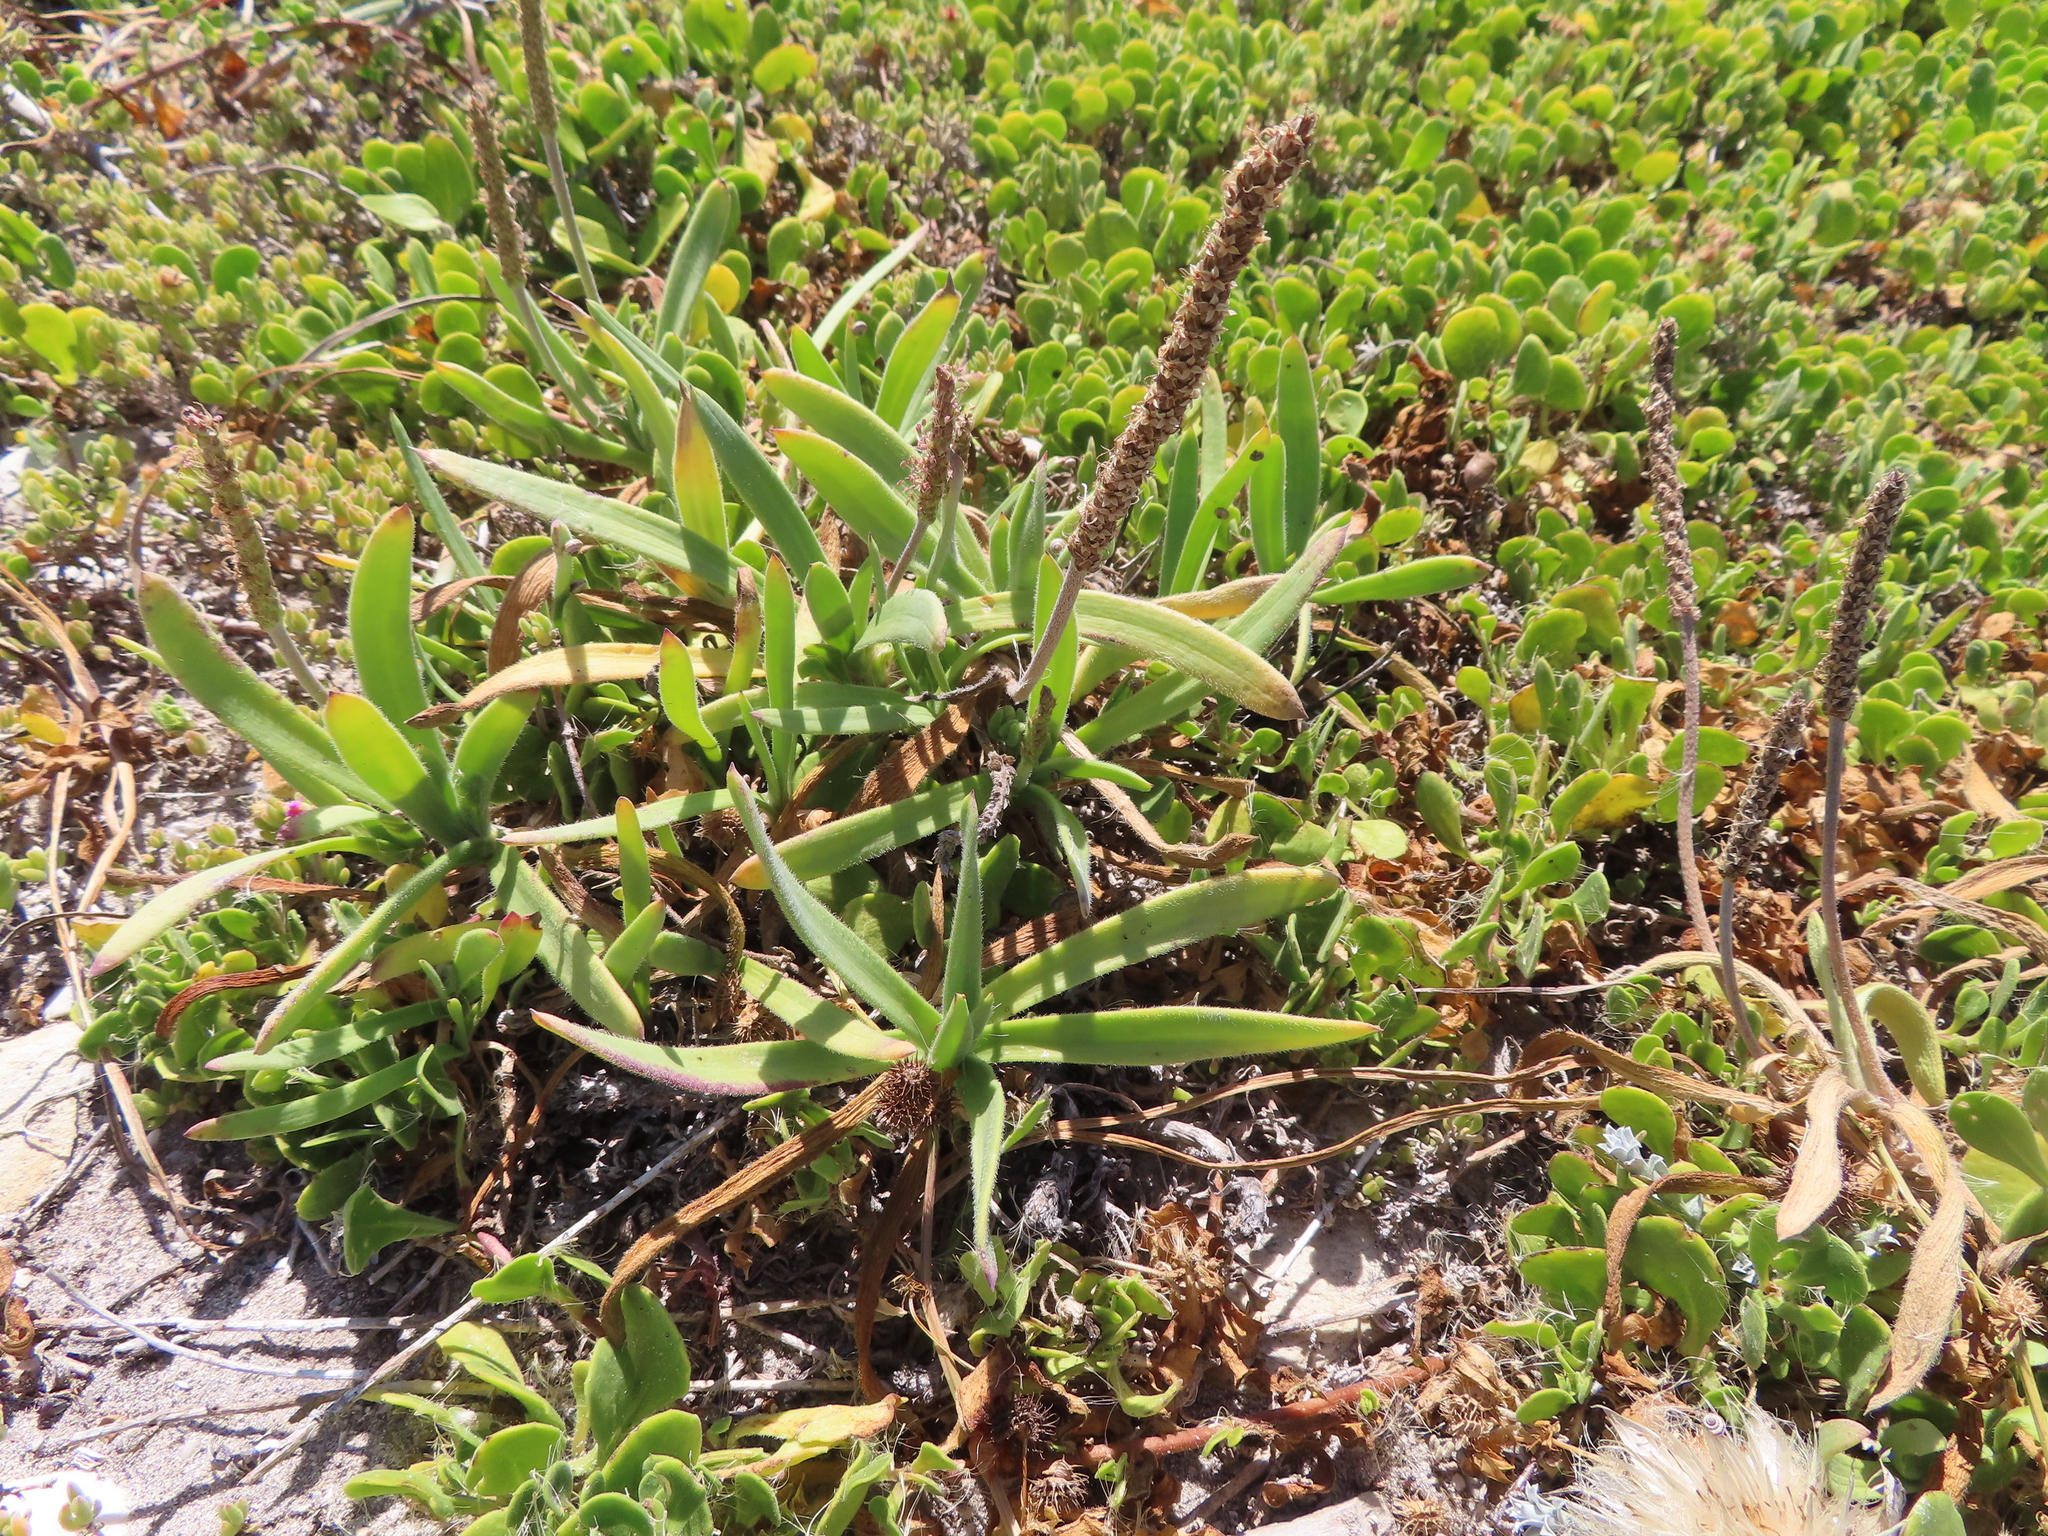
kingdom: Plantae
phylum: Tracheophyta
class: Magnoliopsida
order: Lamiales
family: Plantaginaceae
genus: Plantago
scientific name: Plantago carnosa
